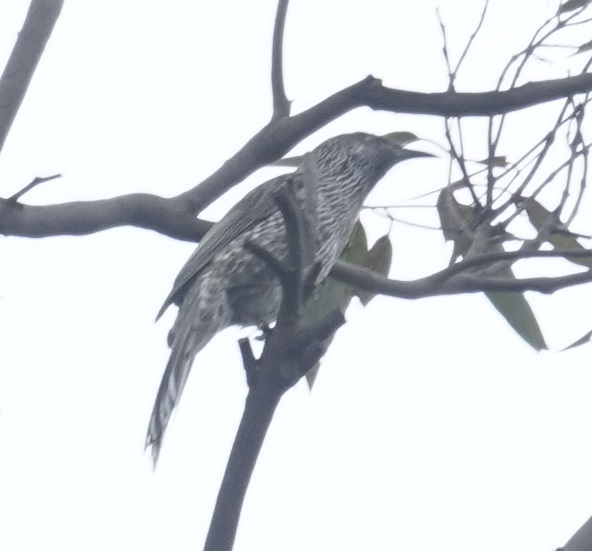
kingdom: Animalia
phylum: Chordata
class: Aves
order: Passeriformes
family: Meliphagidae
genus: Anthochaera
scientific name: Anthochaera chrysoptera
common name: Little wattlebird
